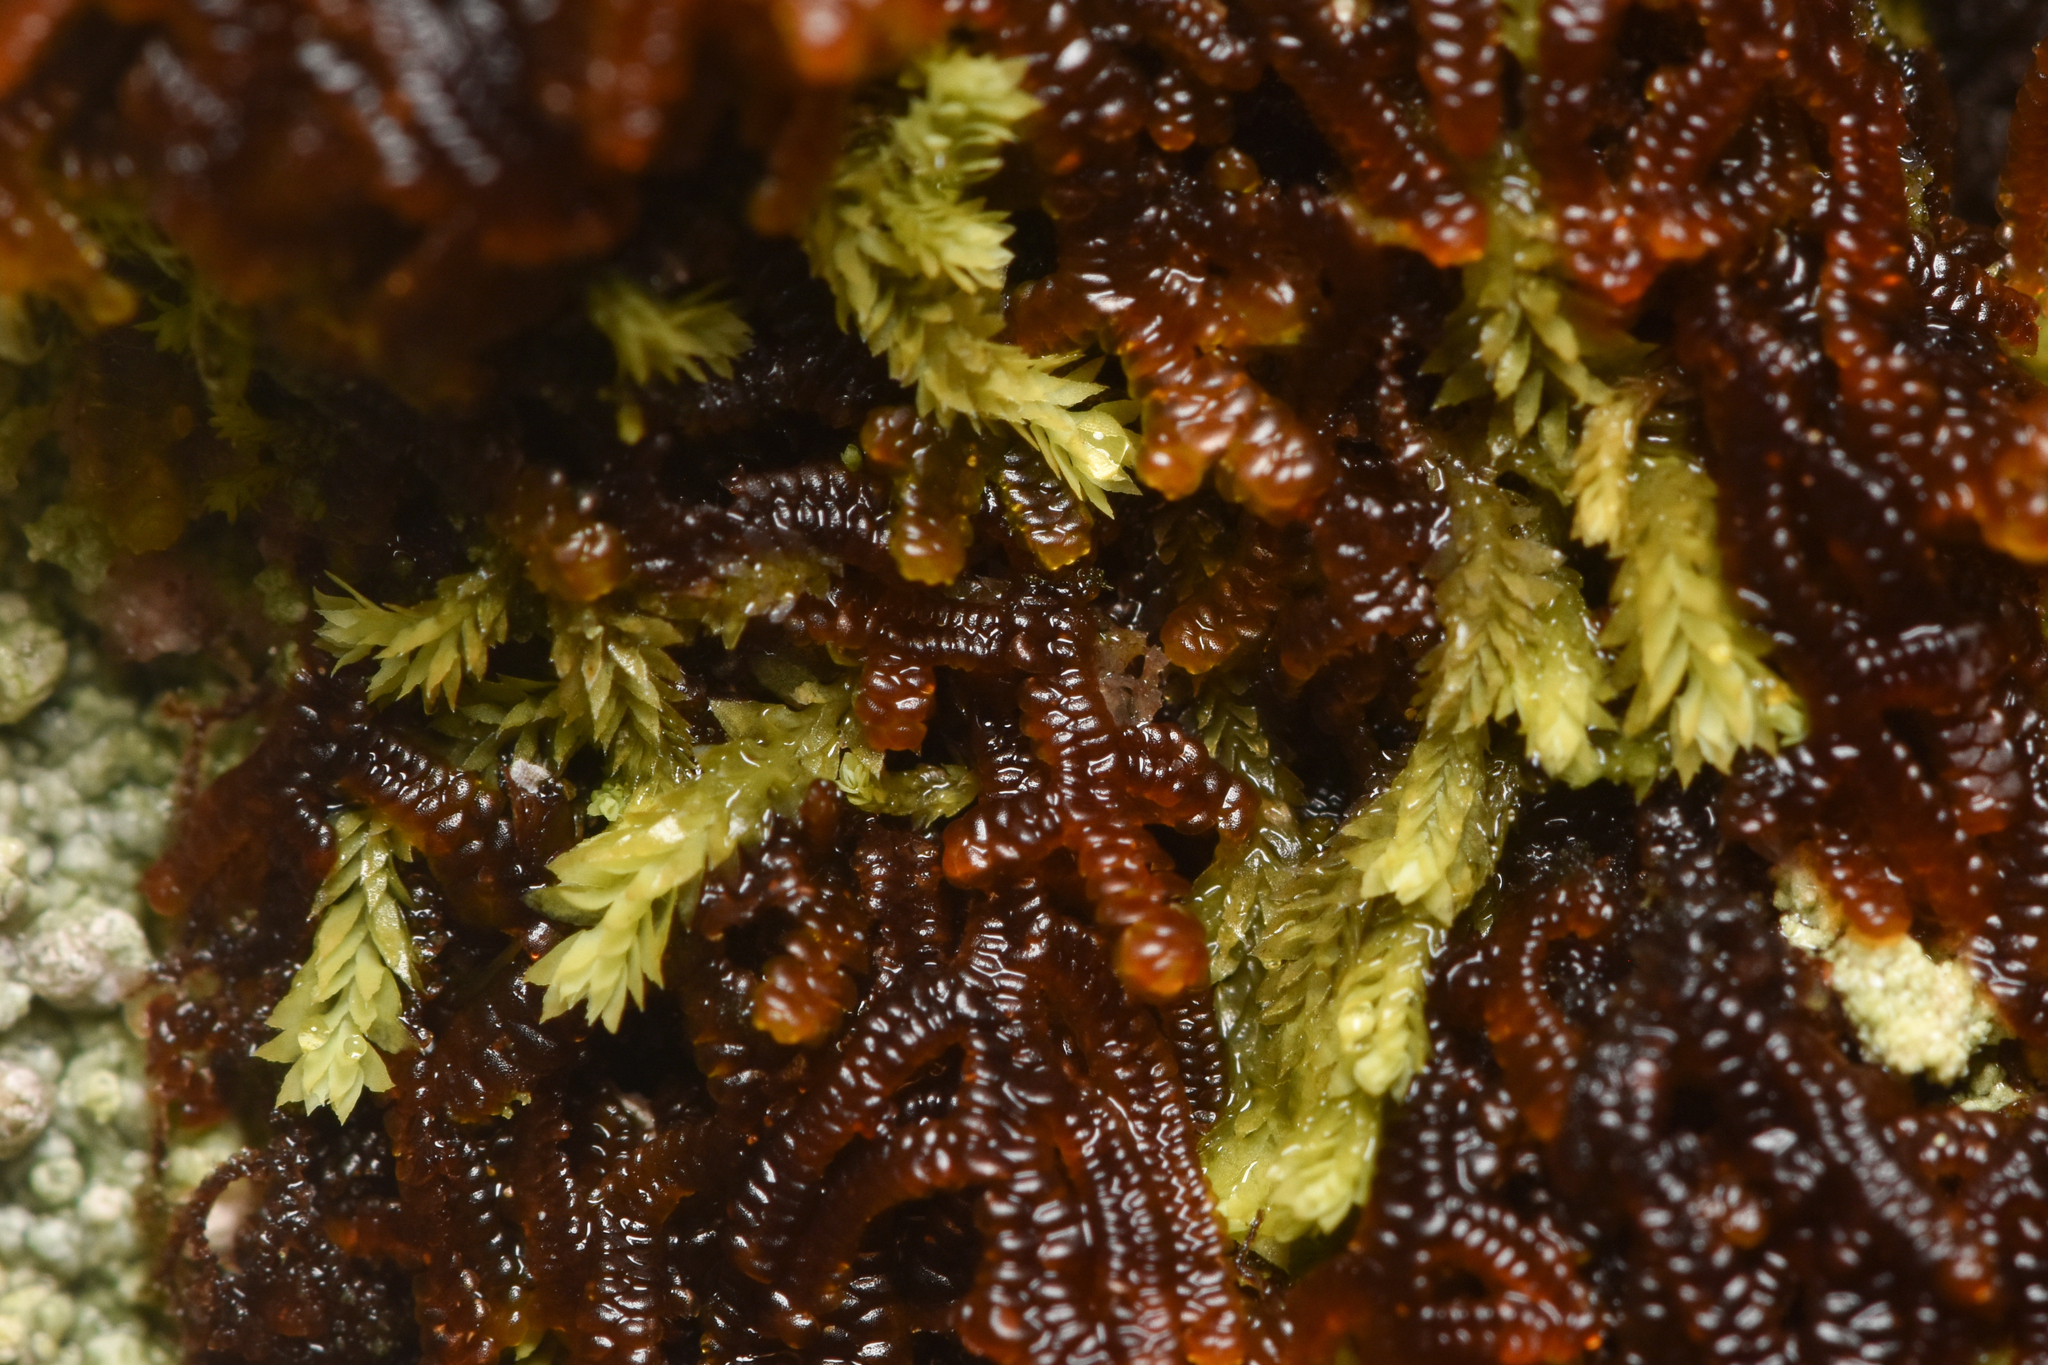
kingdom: Plantae
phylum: Marchantiophyta
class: Jungermanniopsida
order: Jungermanniales
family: Scapaniaceae
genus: Douinia
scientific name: Douinia ovata
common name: Waxy earwort
